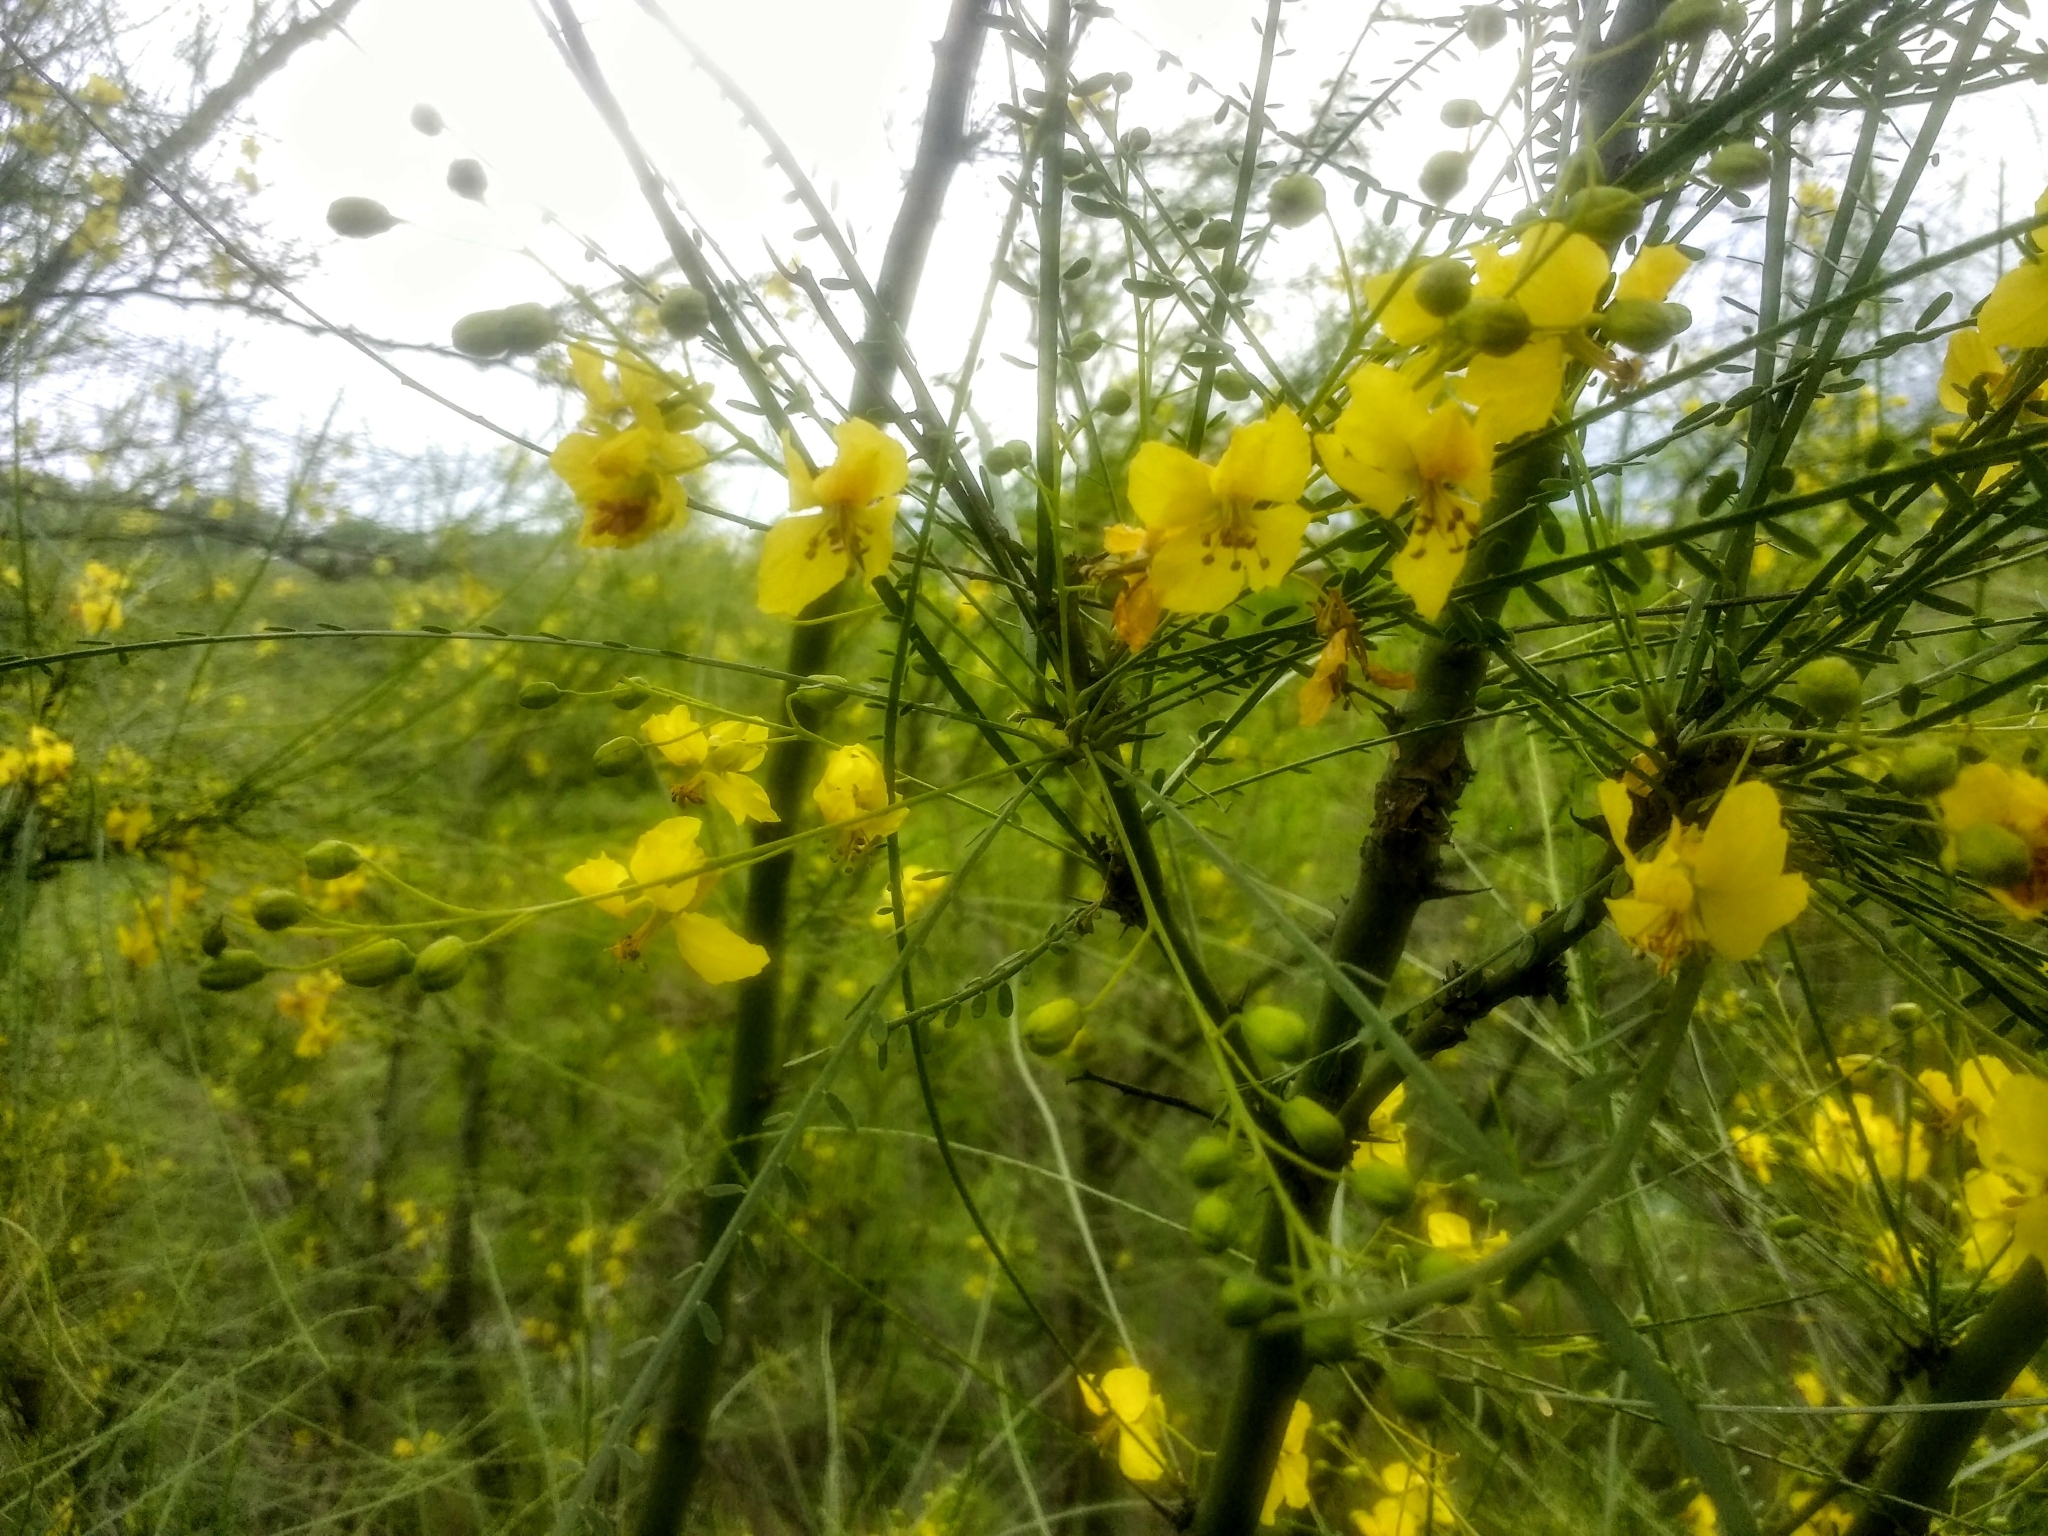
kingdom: Plantae
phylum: Tracheophyta
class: Magnoliopsida
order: Fabales
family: Fabaceae
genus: Parkinsonia
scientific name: Parkinsonia aculeata
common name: Jerusalem thorn
